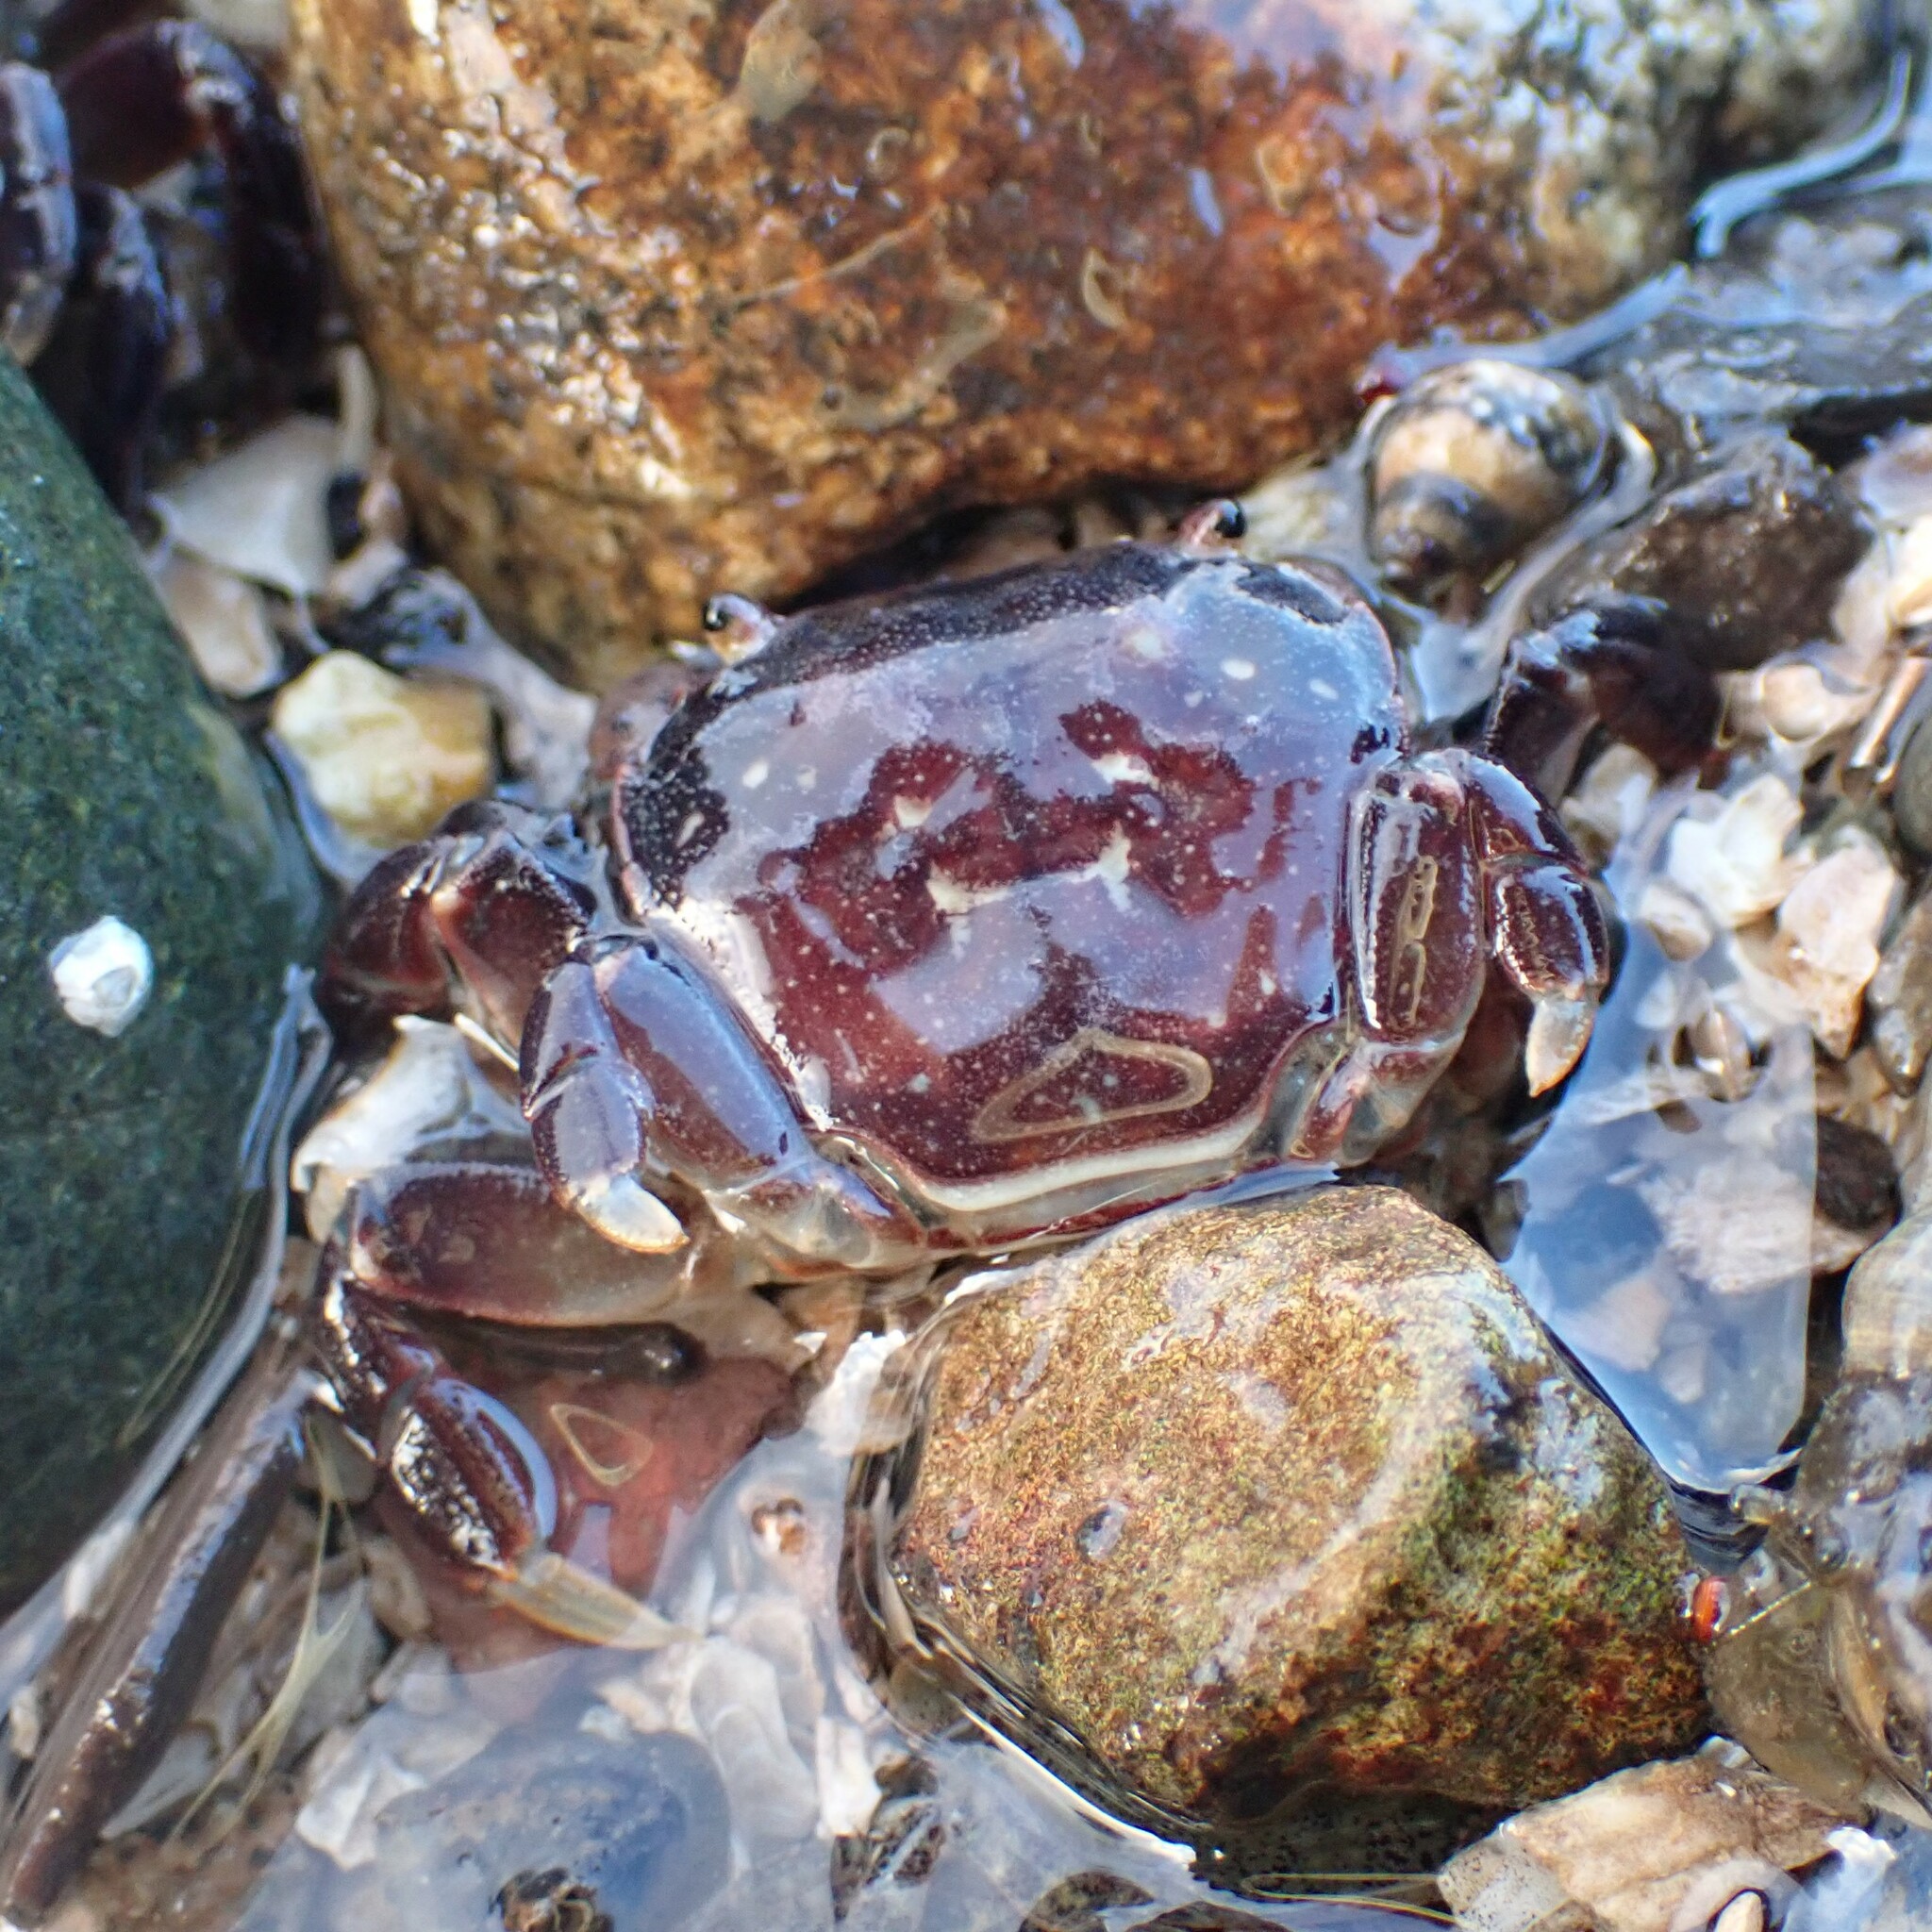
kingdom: Animalia
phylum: Arthropoda
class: Malacostraca
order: Decapoda
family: Varunidae
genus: Hemigrapsus
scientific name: Hemigrapsus nudus
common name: Purple shore crab
